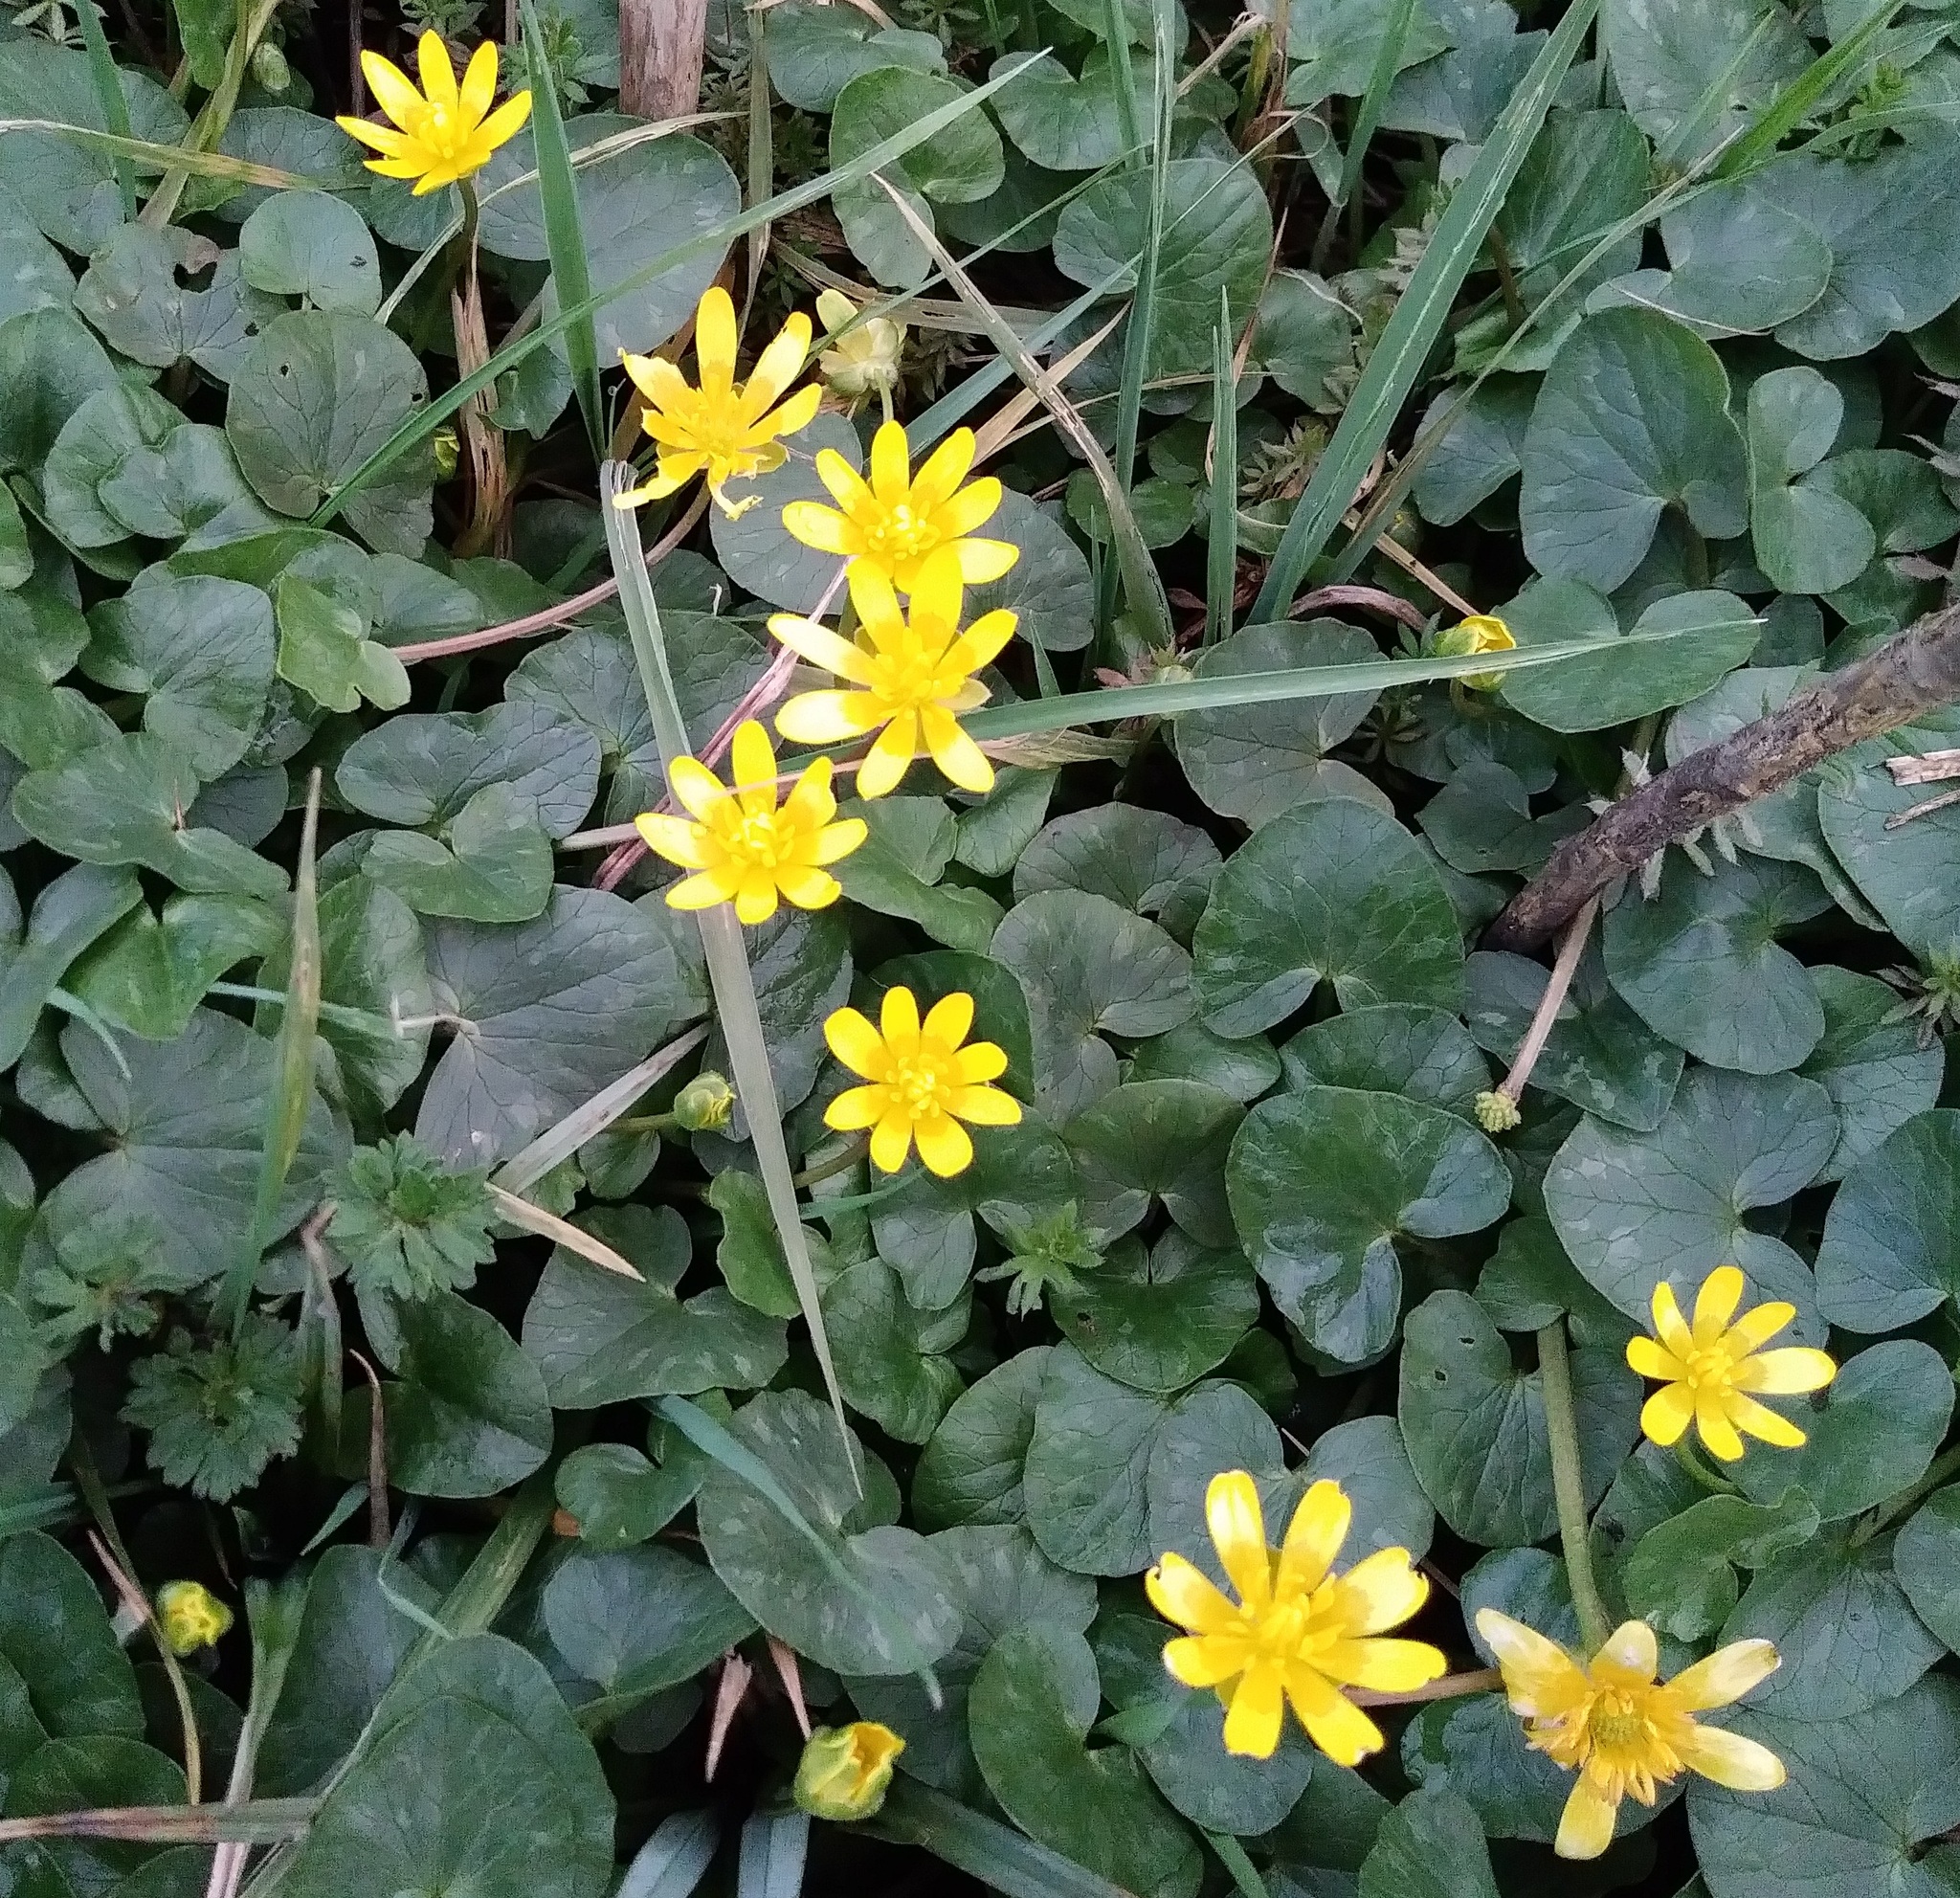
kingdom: Plantae
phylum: Tracheophyta
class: Magnoliopsida
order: Ranunculales
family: Ranunculaceae
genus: Ficaria
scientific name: Ficaria verna
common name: Lesser celandine
